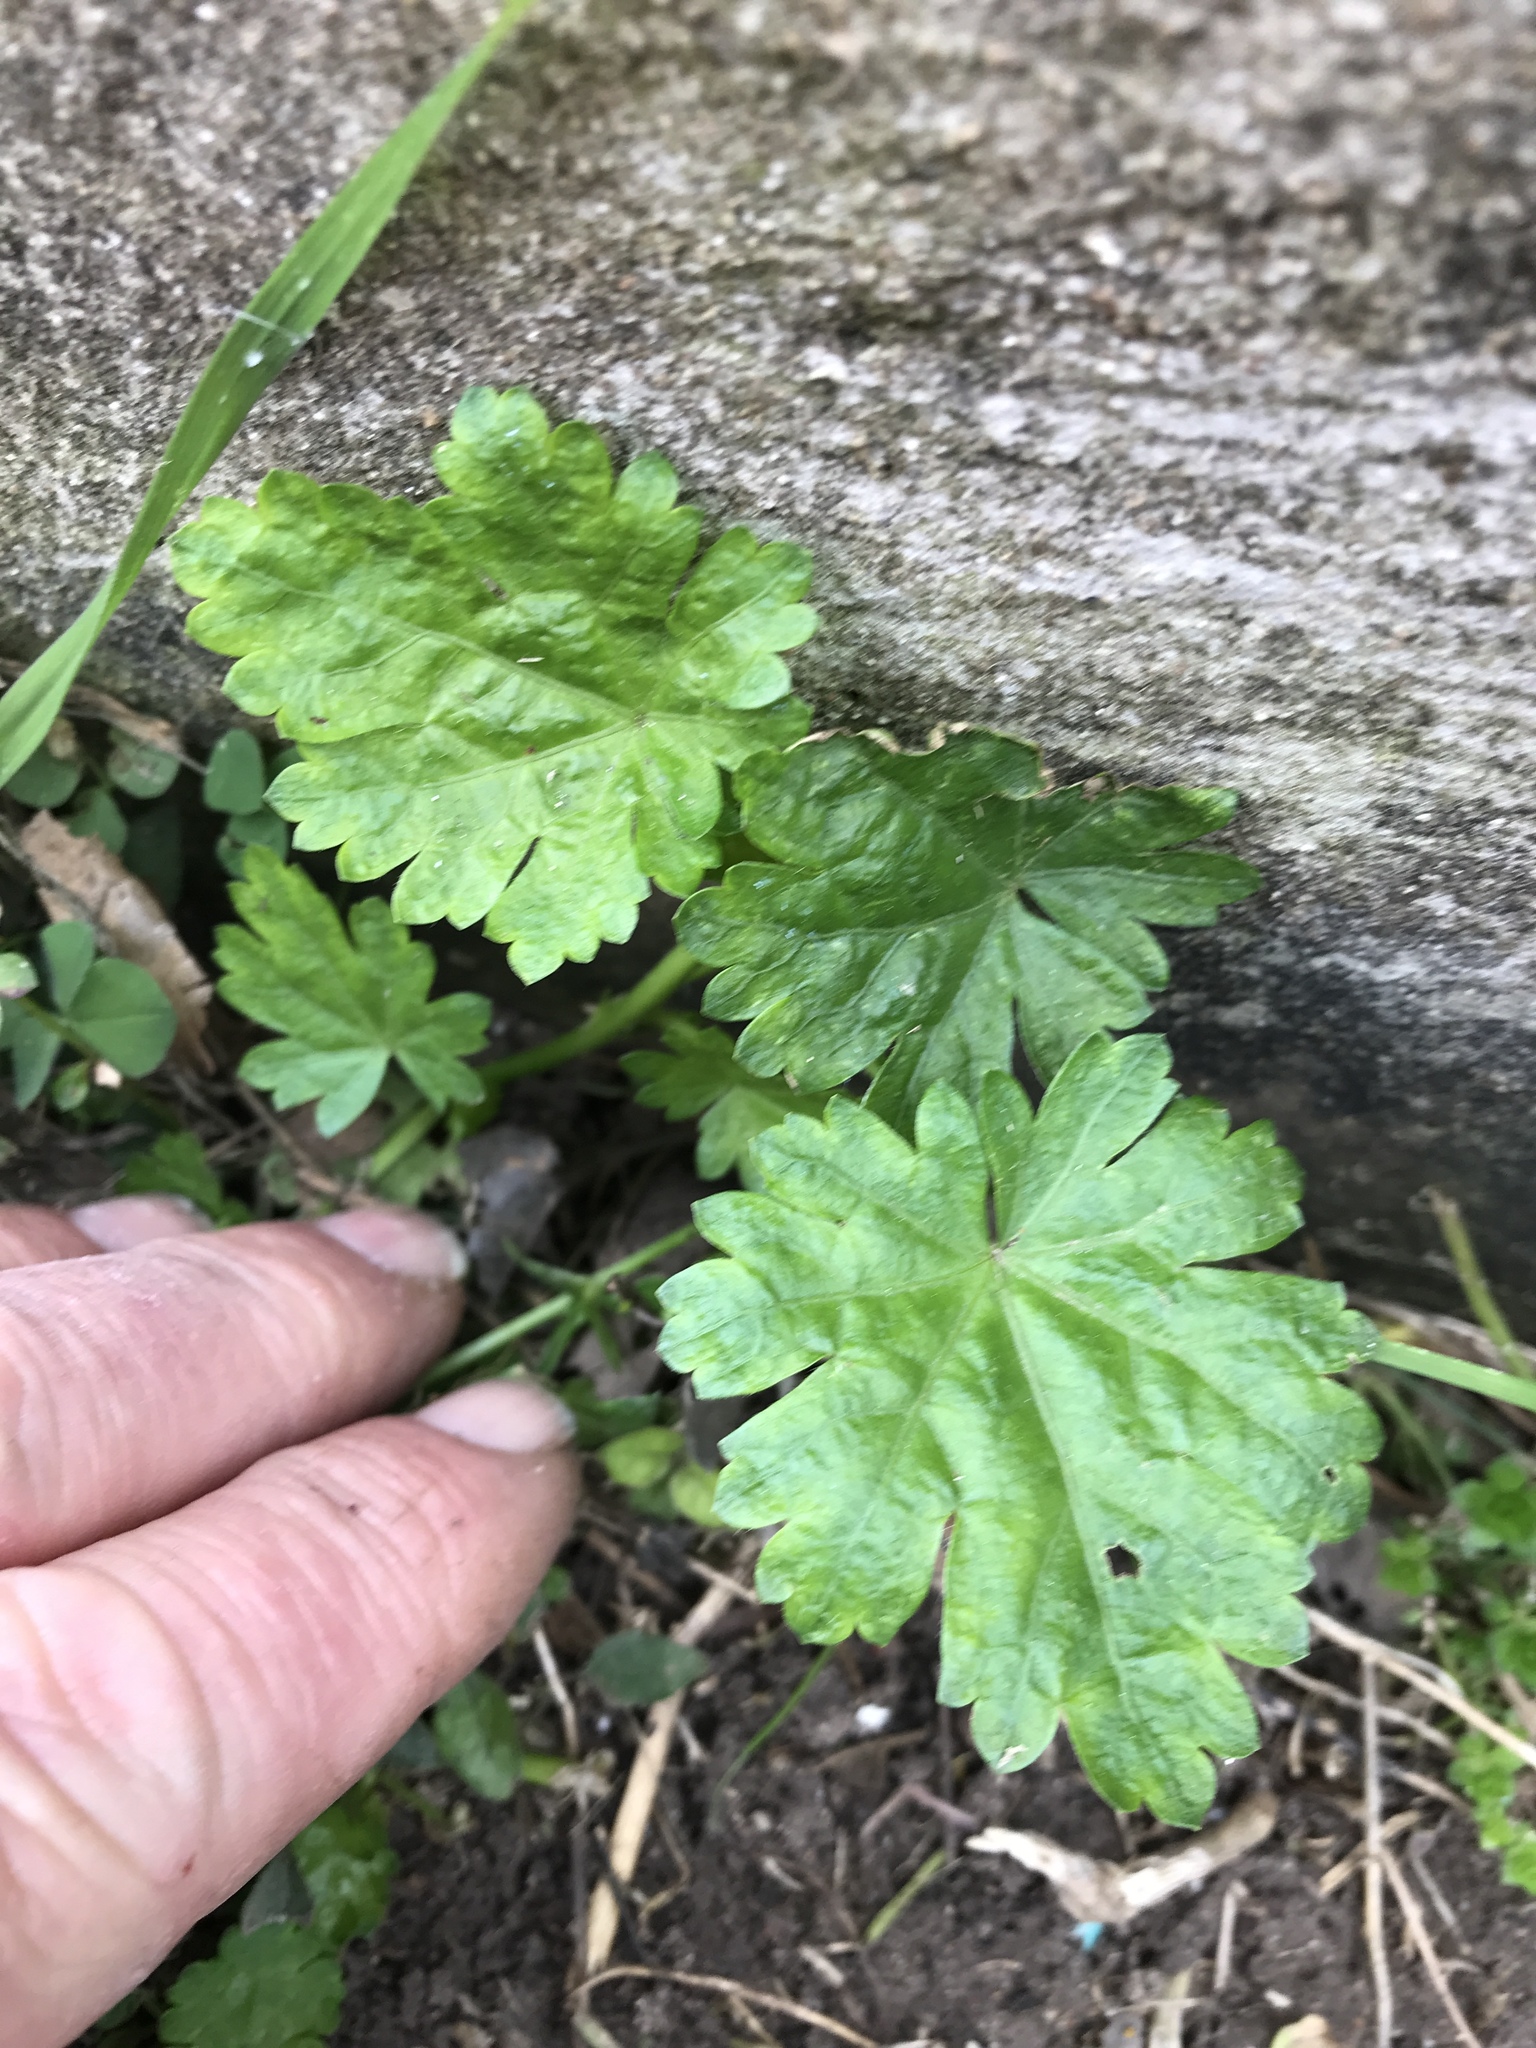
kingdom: Plantae
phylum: Tracheophyta
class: Magnoliopsida
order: Malvales
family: Malvaceae
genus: Modiola
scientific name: Modiola caroliniana
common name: Carolina bristlemallow
